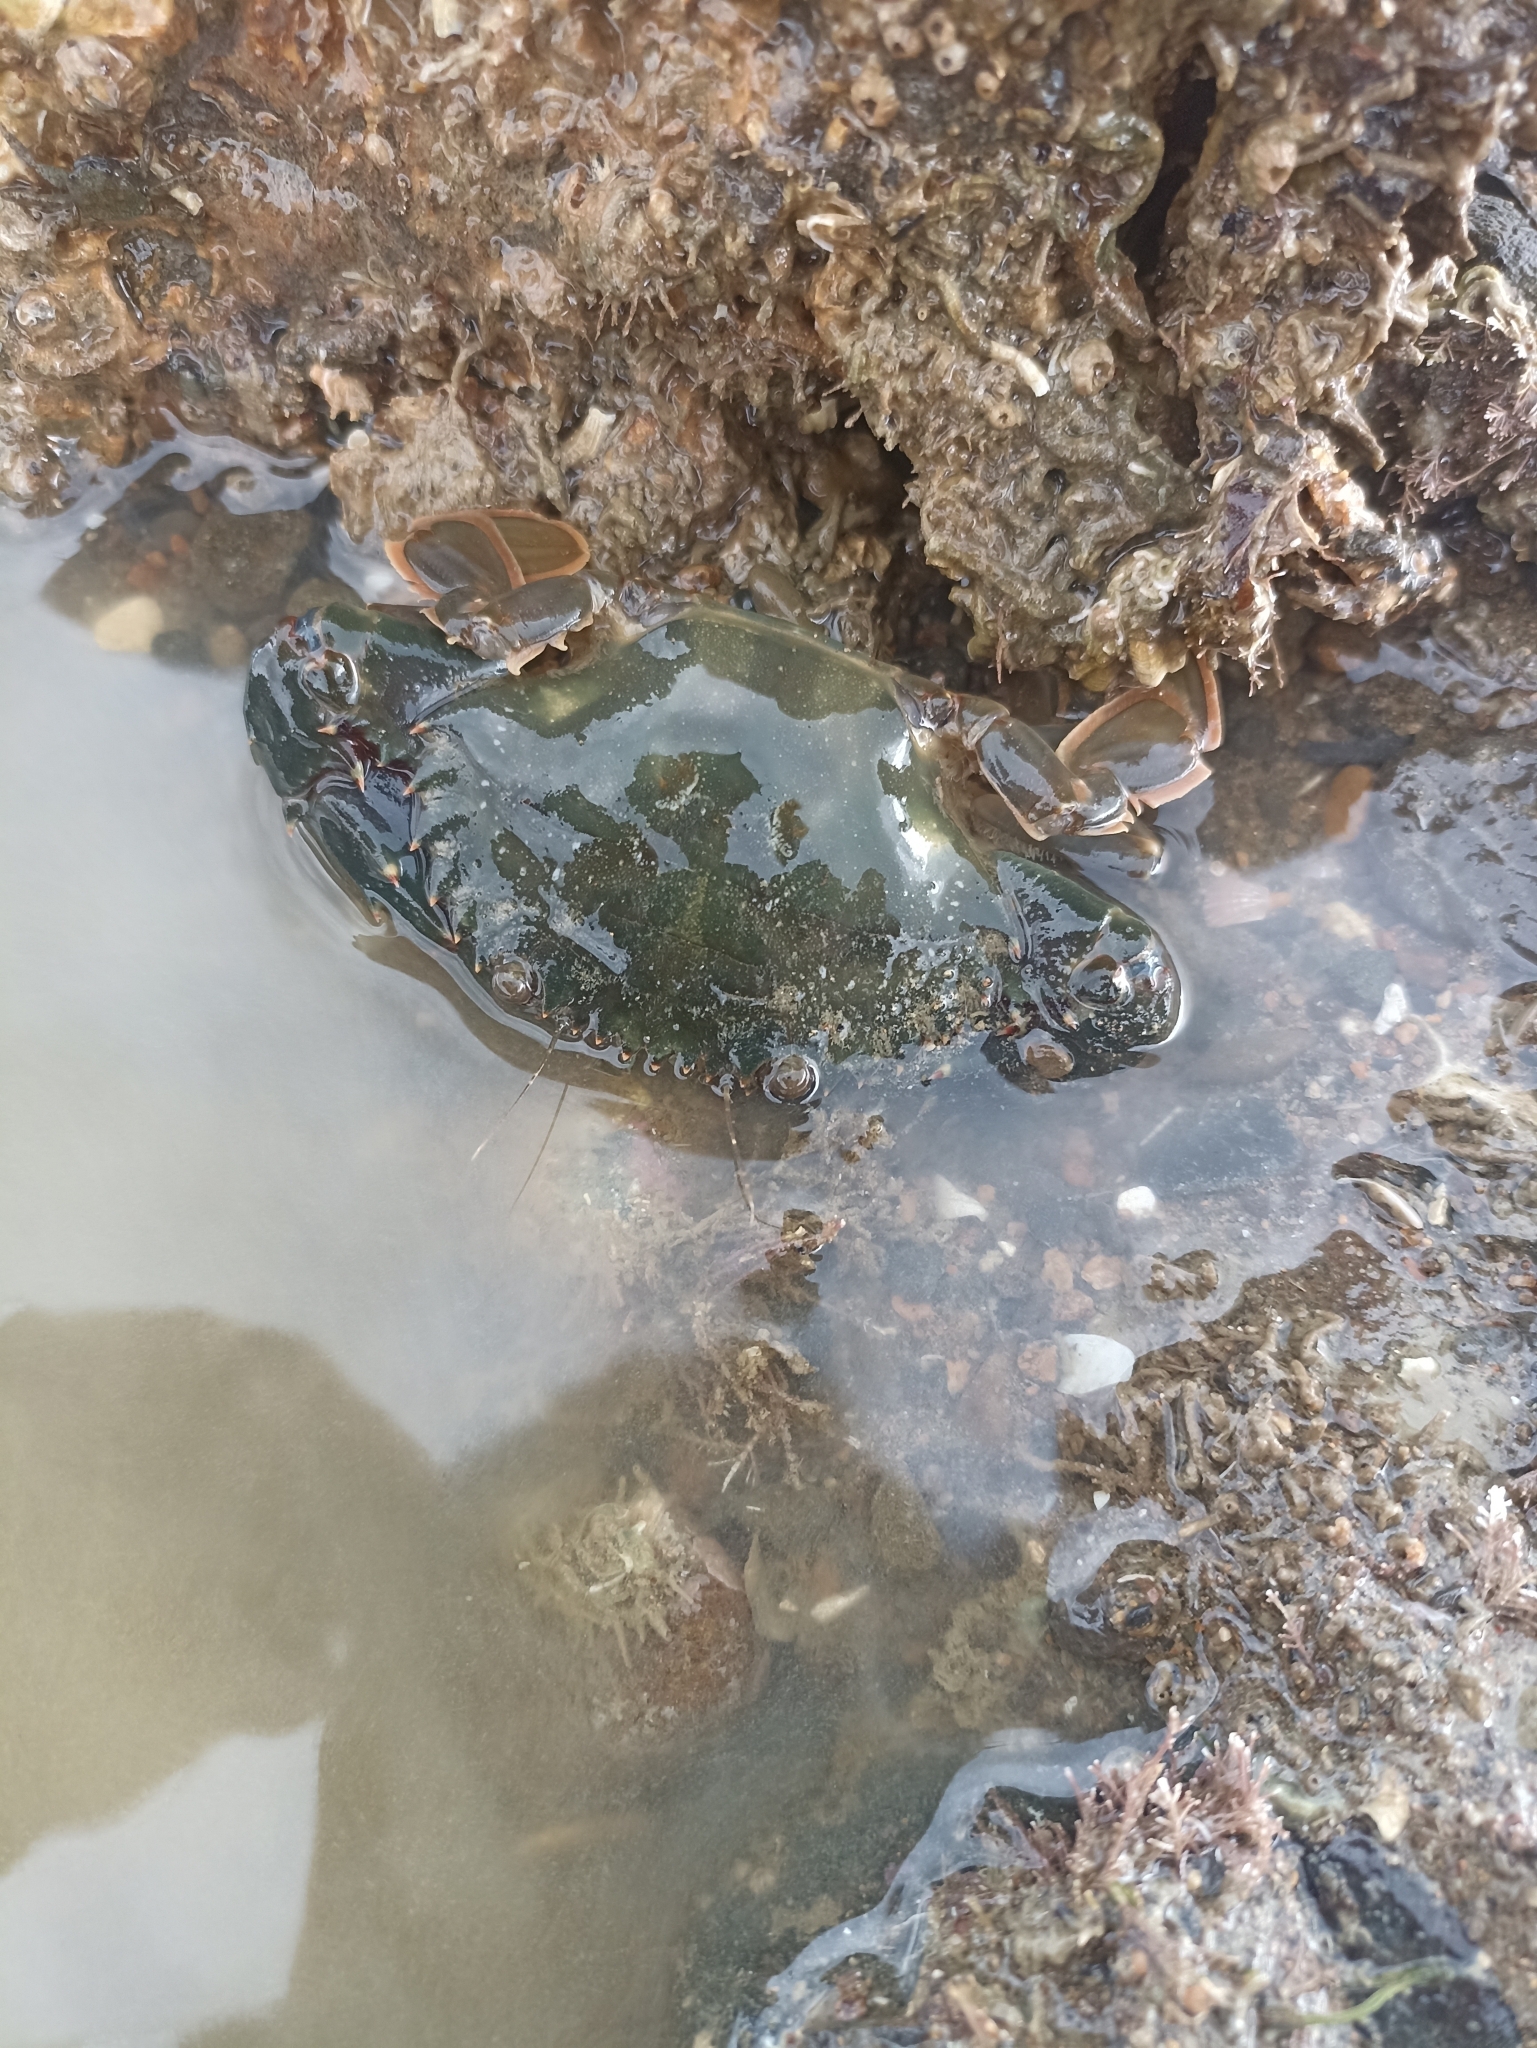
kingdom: Animalia
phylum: Arthropoda
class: Malacostraca
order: Decapoda
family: Portunidae
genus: Charybdis
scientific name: Charybdis japonica
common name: Asian paddle crab
